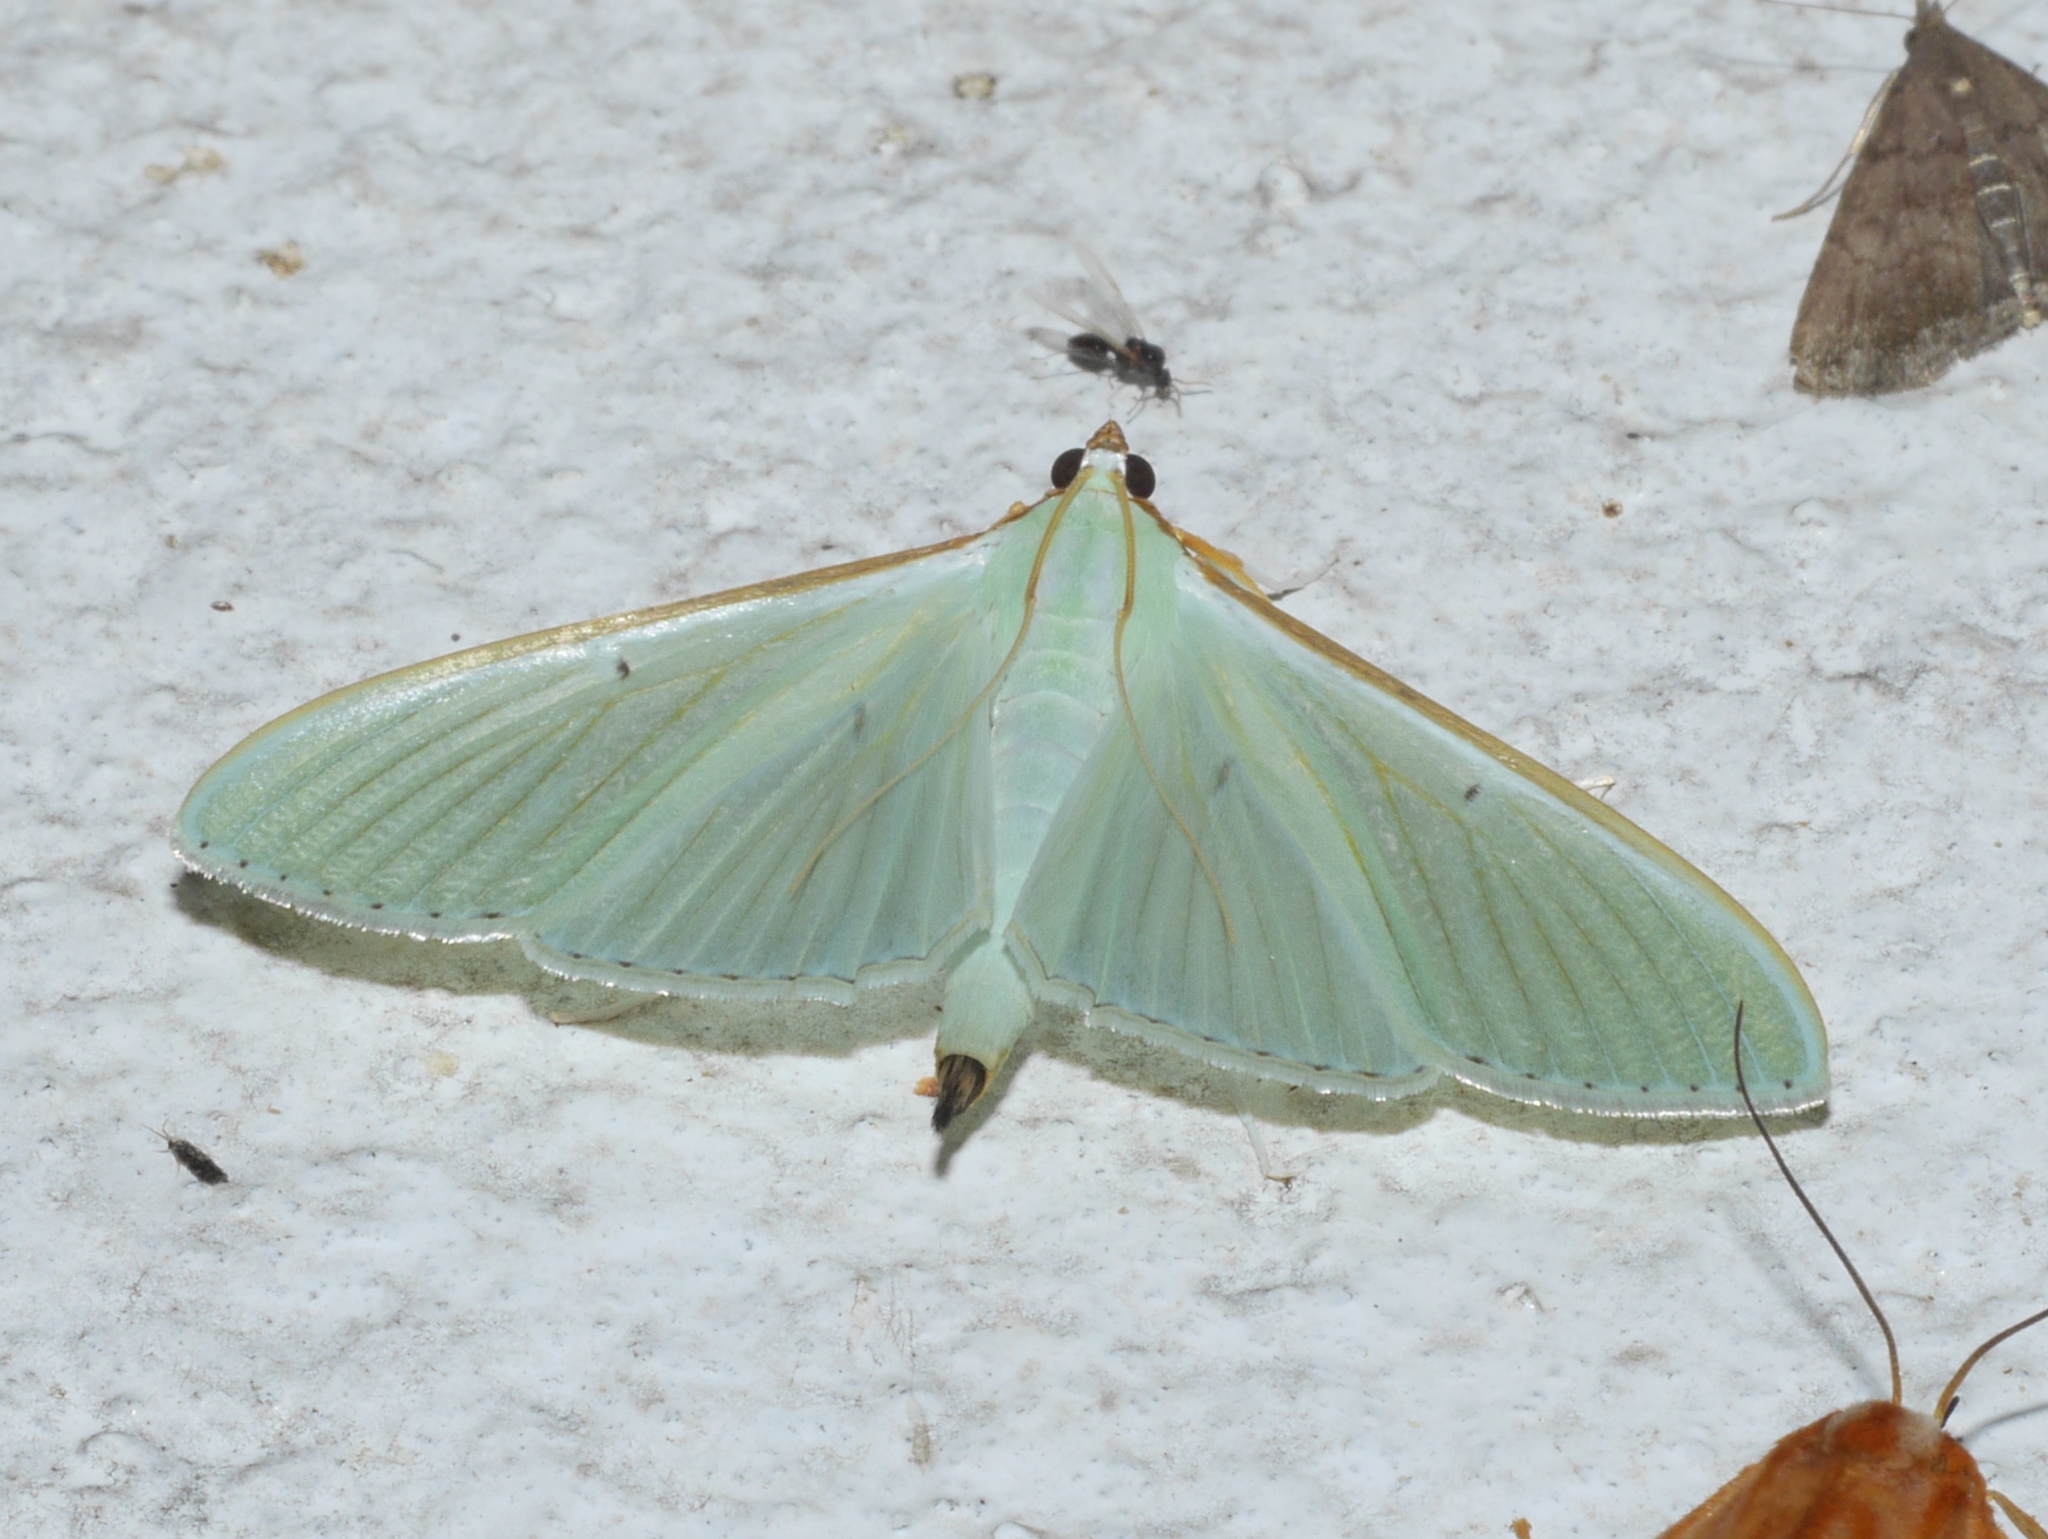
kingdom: Animalia
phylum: Arthropoda
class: Insecta
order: Lepidoptera
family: Crambidae
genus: Stemorrhages
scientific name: Stemorrhages sericea
